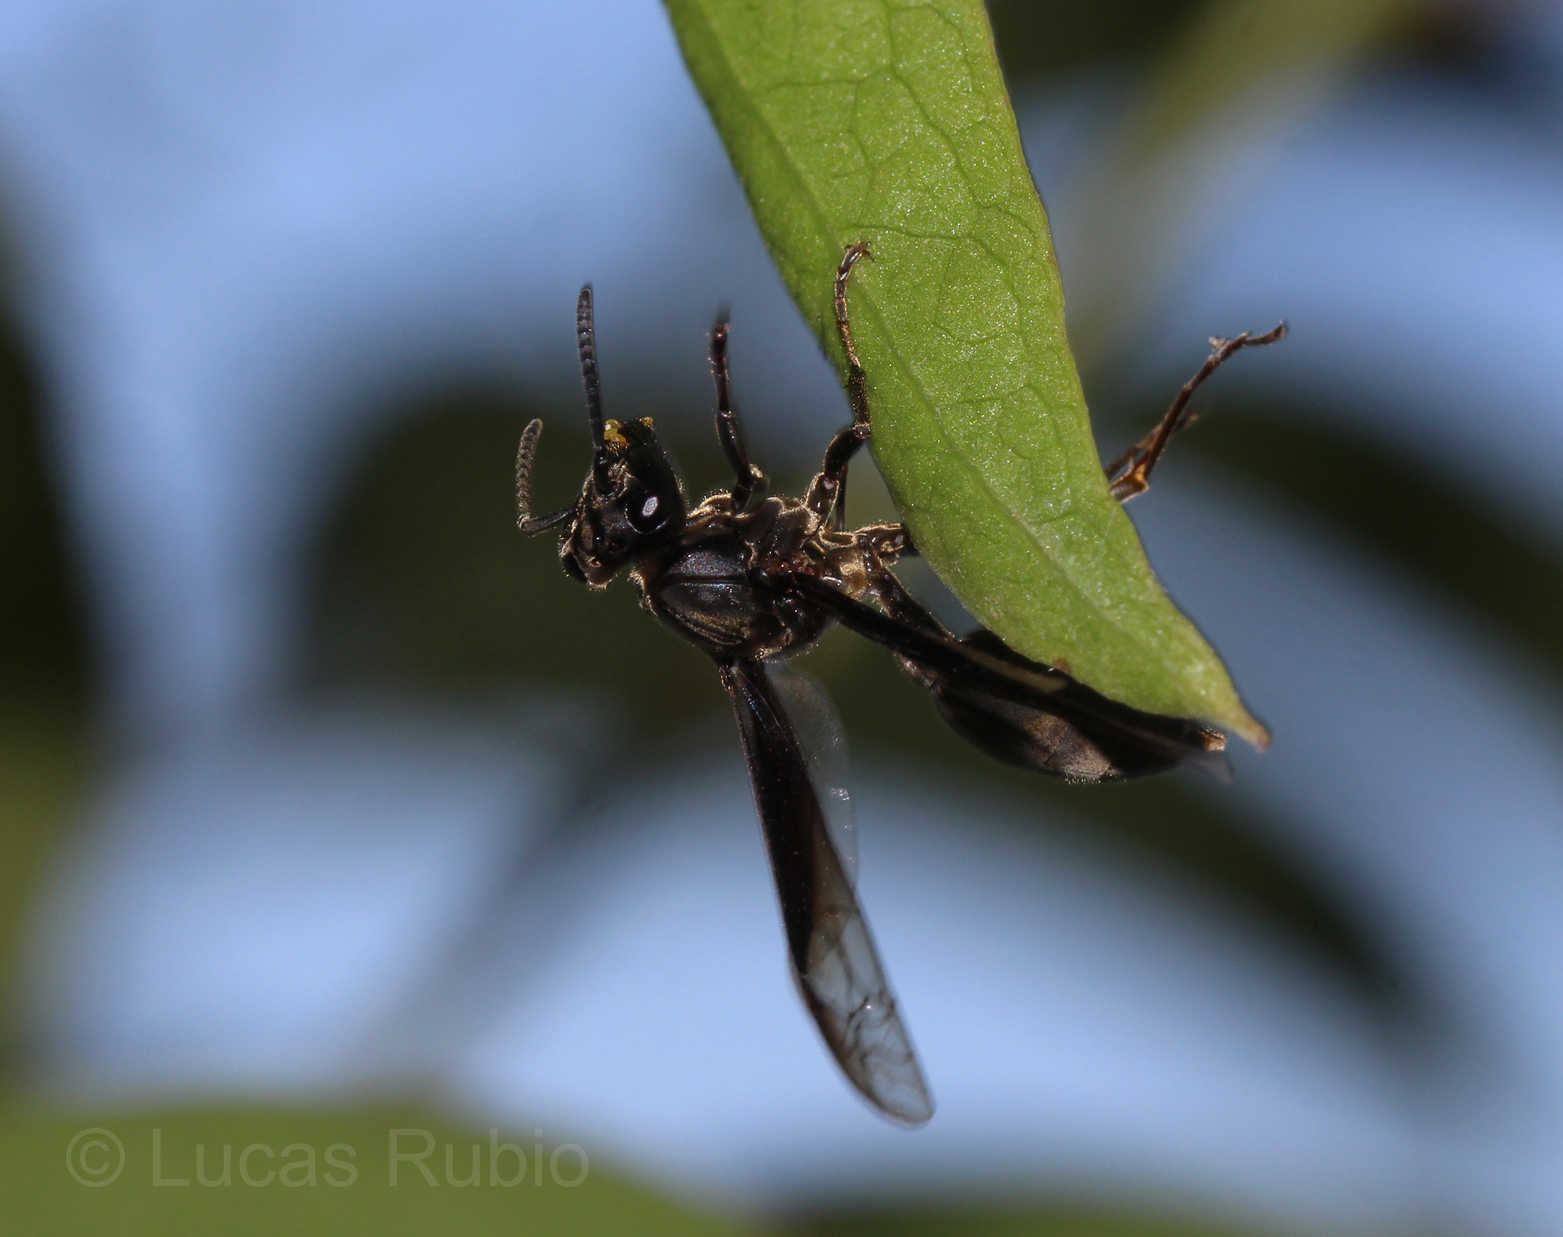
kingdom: Animalia
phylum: Arthropoda
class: Insecta
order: Hymenoptera
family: Eumenidae
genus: Polybia
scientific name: Polybia ignobilis
